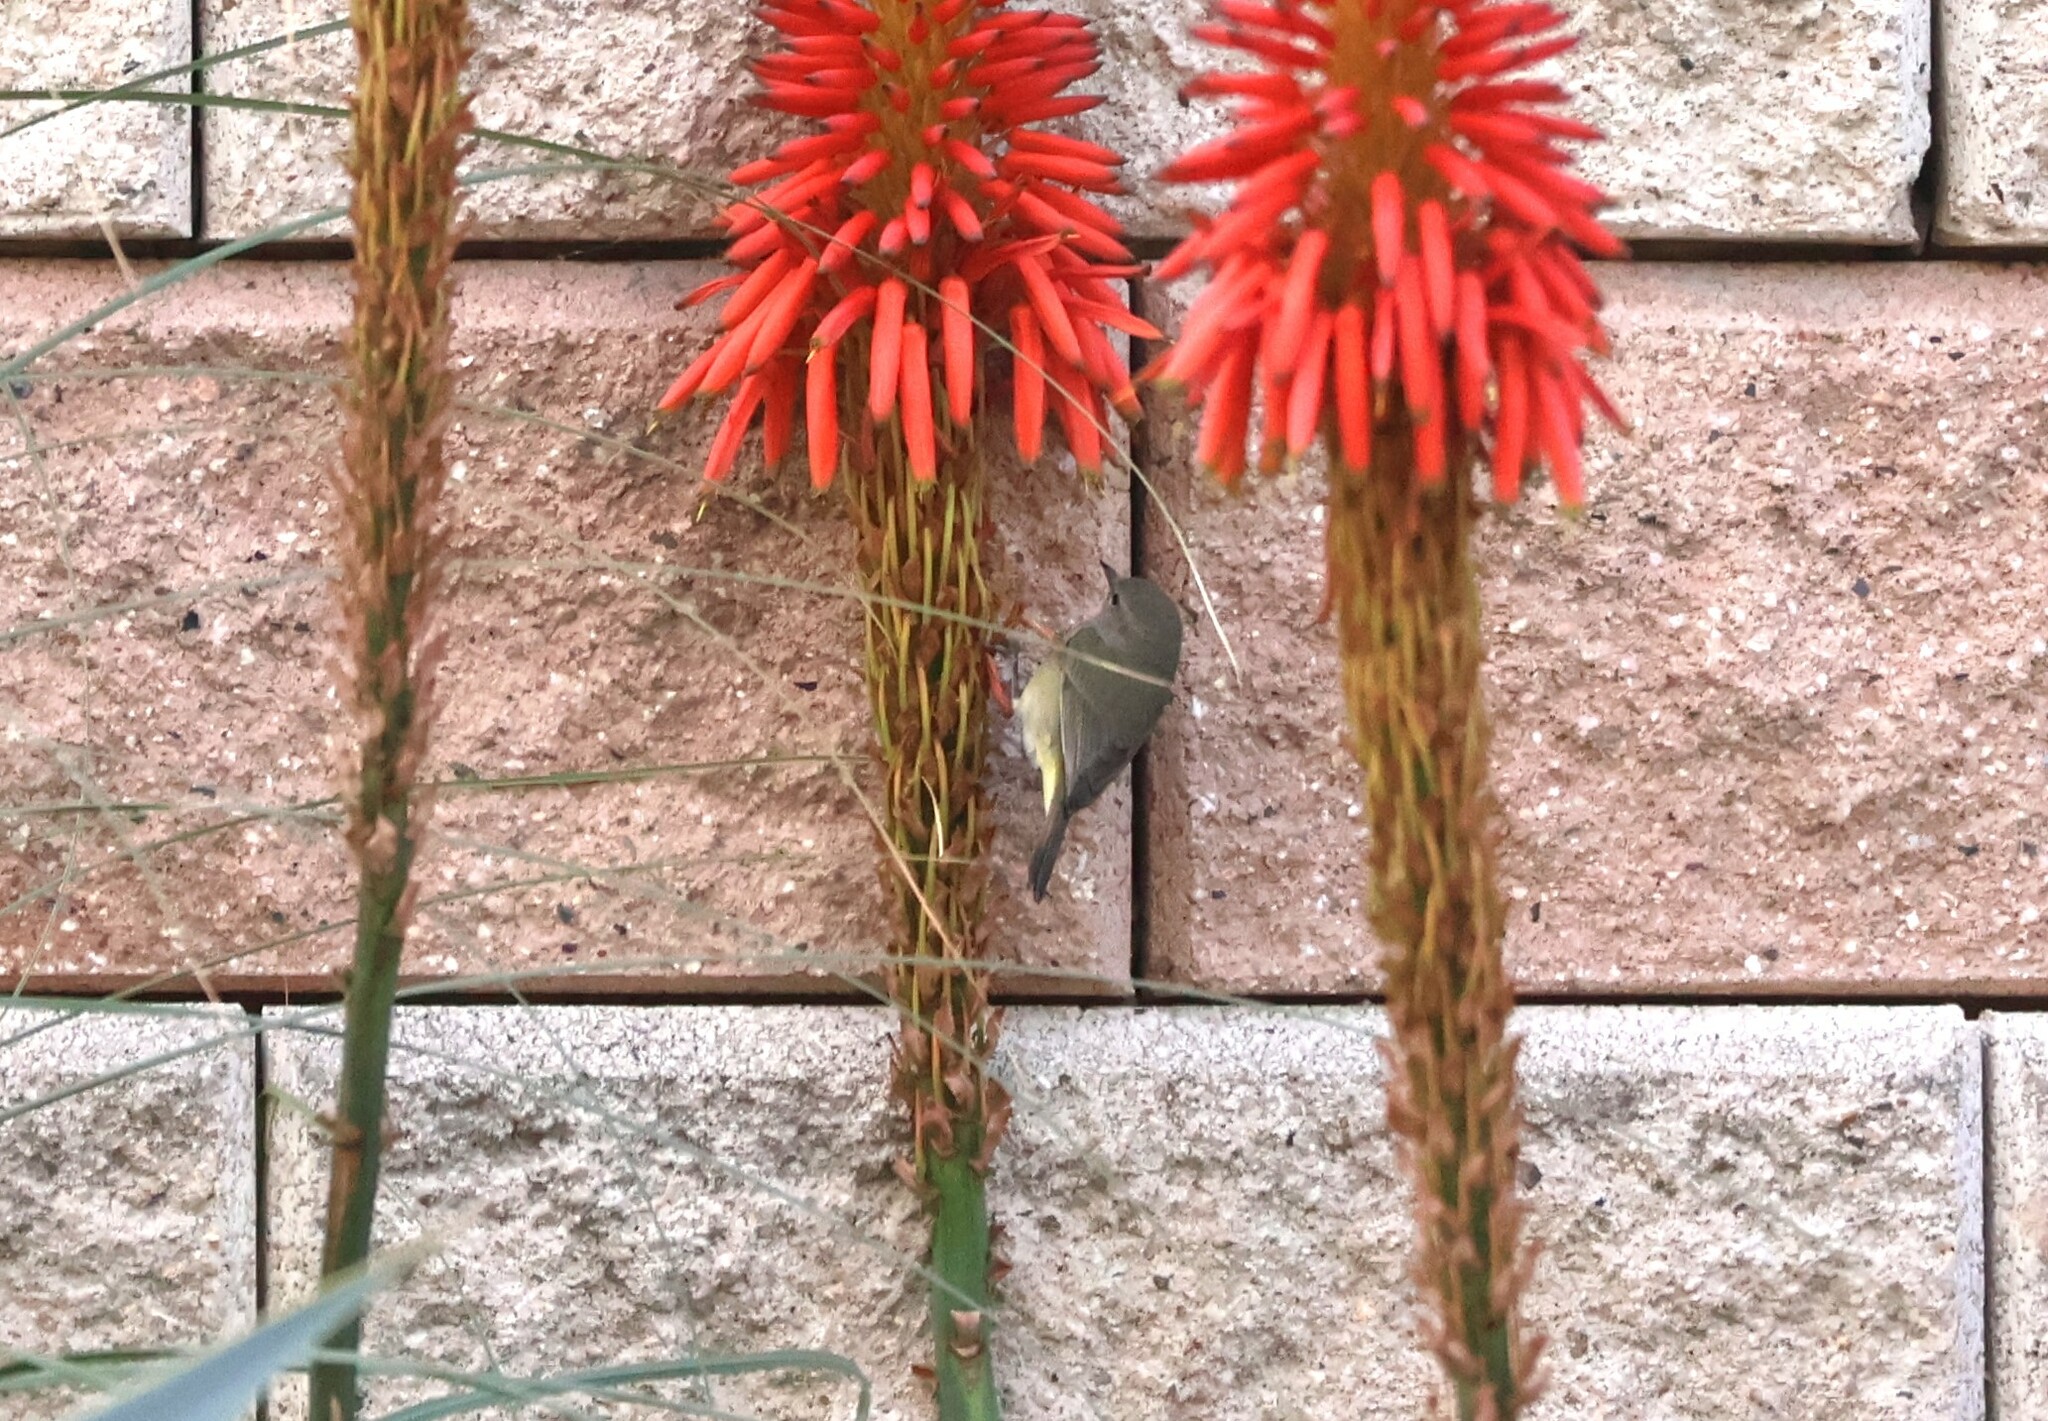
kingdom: Animalia
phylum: Chordata
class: Aves
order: Passeriformes
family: Parulidae
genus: Leiothlypis
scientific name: Leiothlypis celata
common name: Orange-crowned warbler
